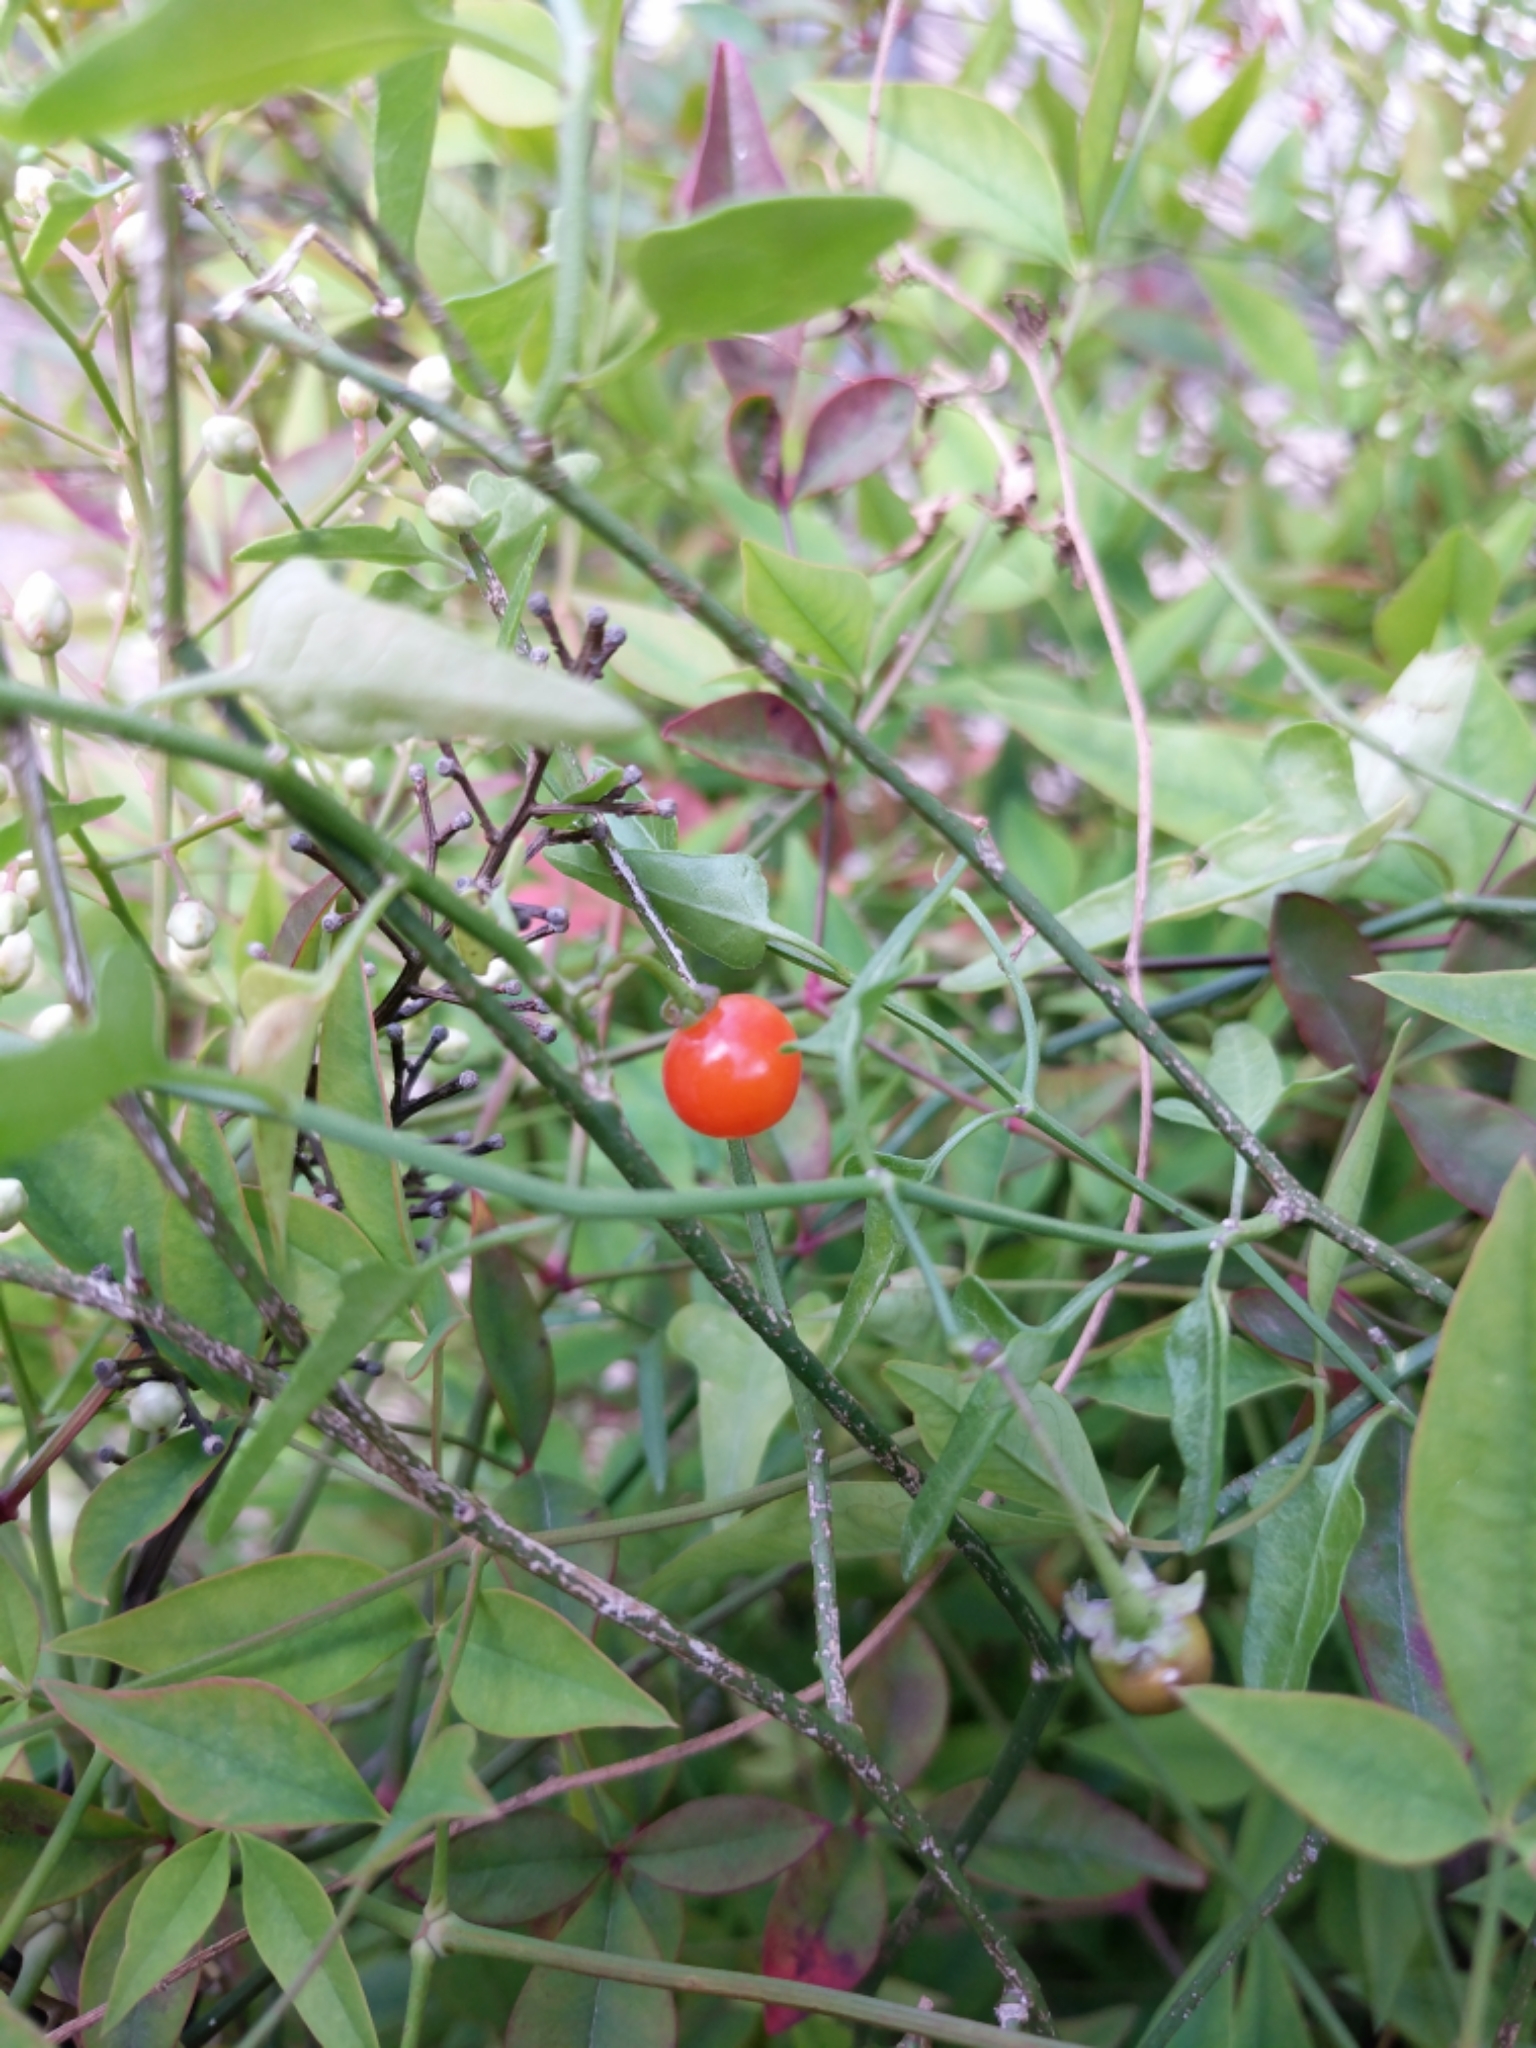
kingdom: Plantae
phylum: Tracheophyta
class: Magnoliopsida
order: Solanales
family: Solanaceae
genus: Solanum
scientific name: Solanum triquetrum
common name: Texas nightshade
